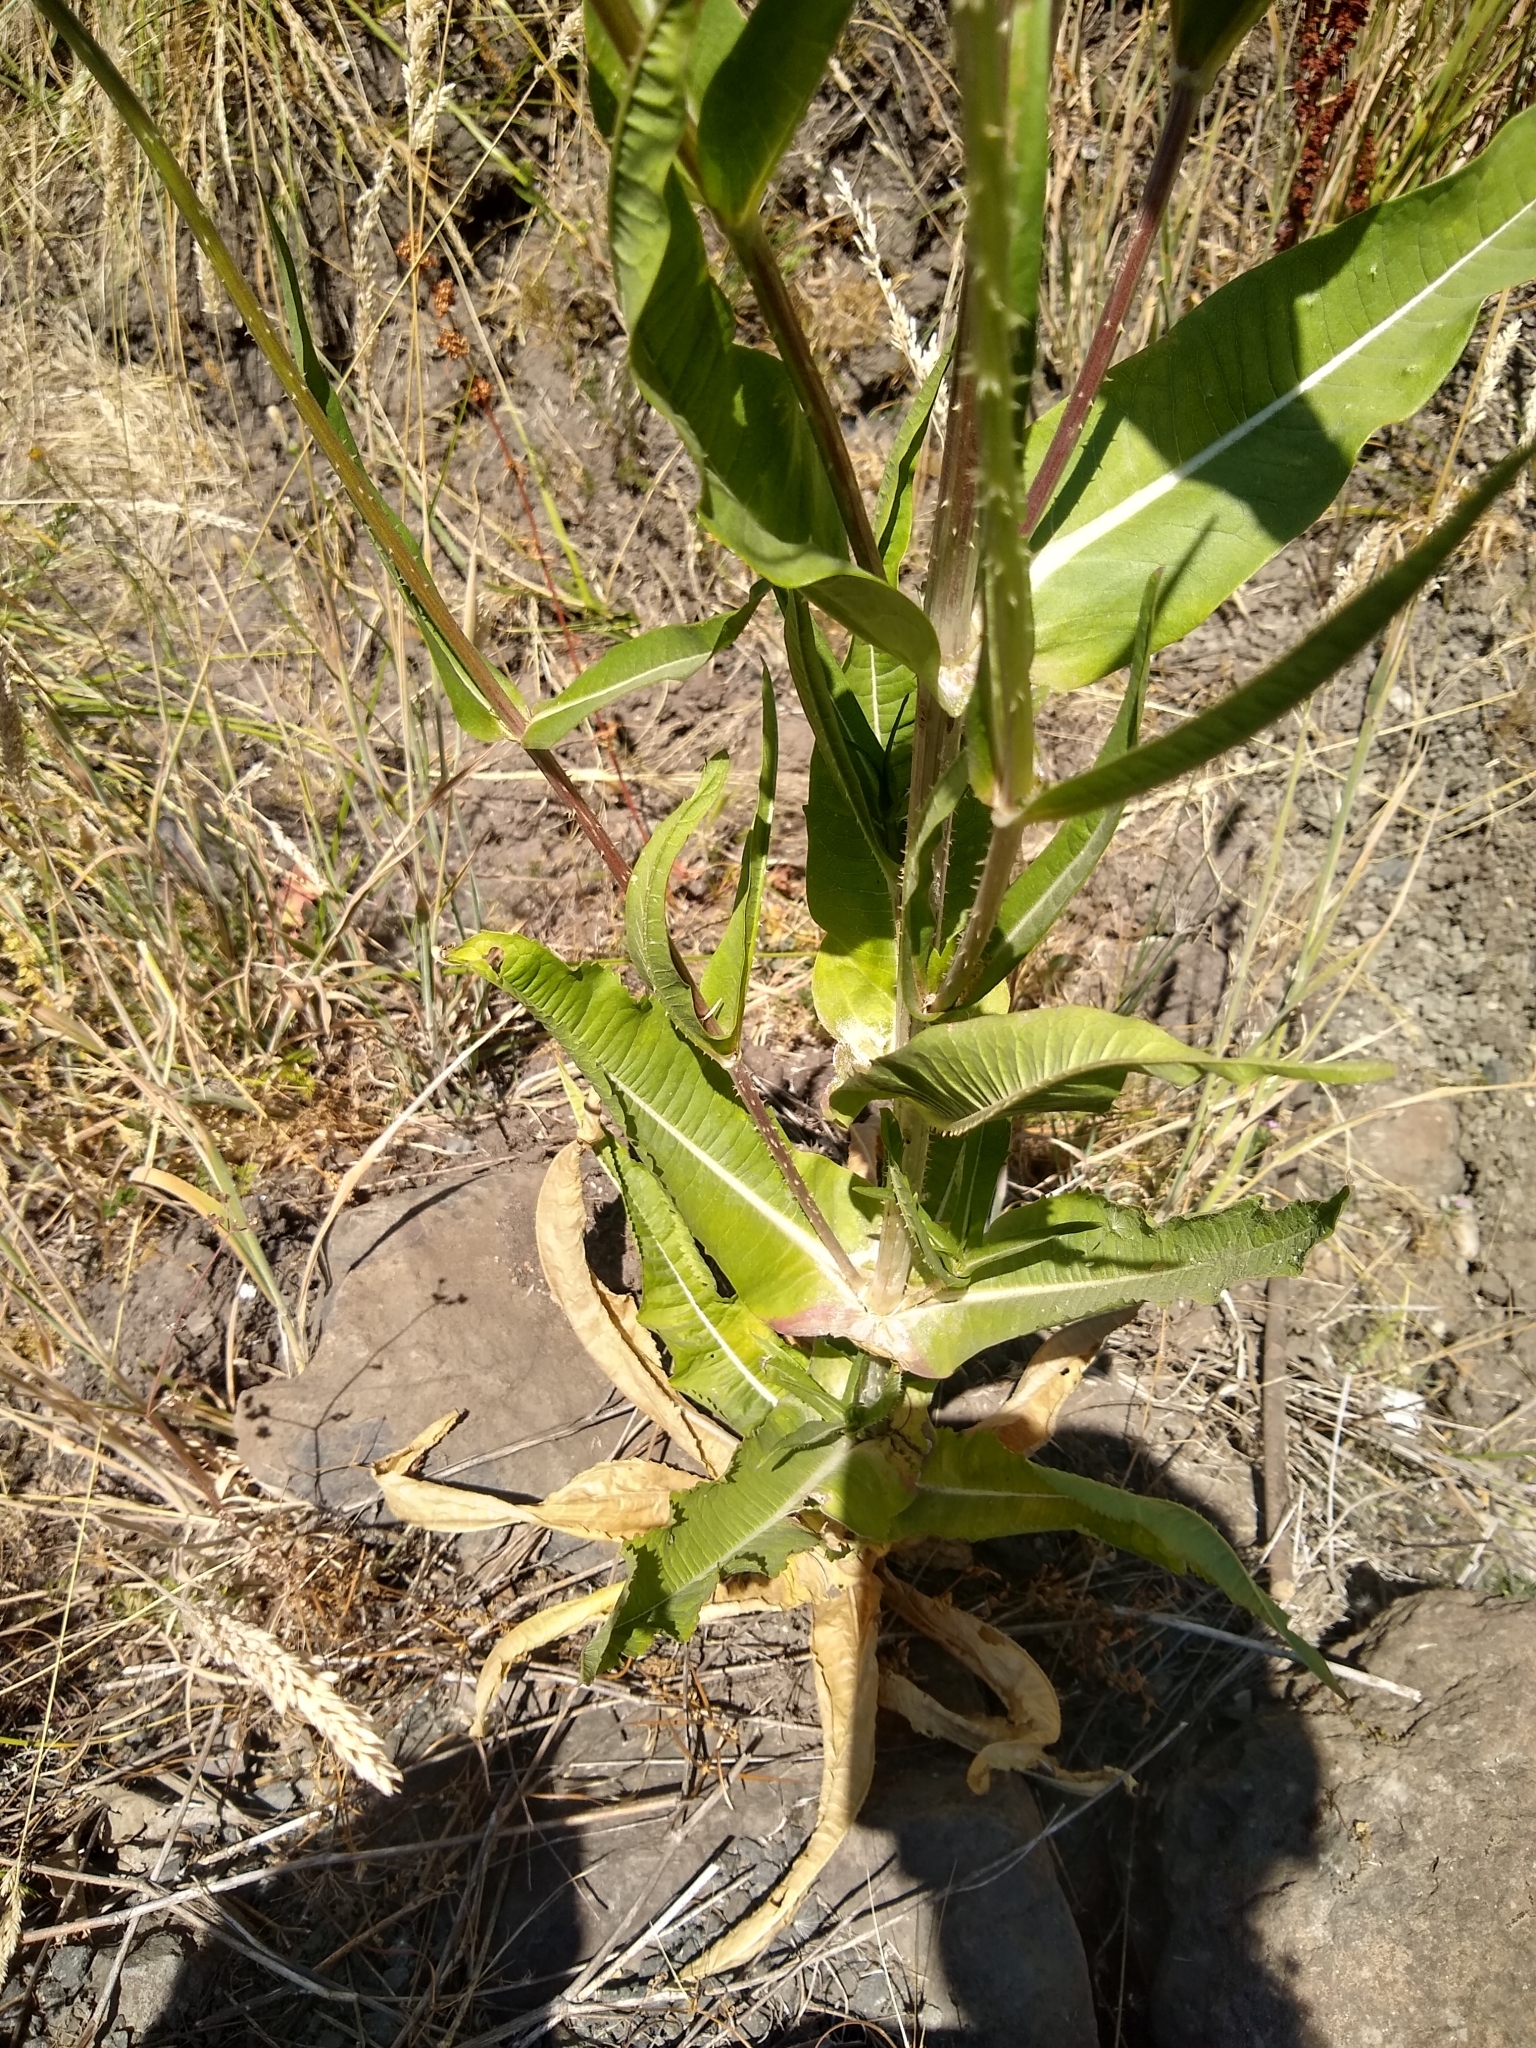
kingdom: Plantae
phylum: Tracheophyta
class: Magnoliopsida
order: Dipsacales
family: Caprifoliaceae
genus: Dipsacus
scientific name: Dipsacus fullonum
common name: Teasel
